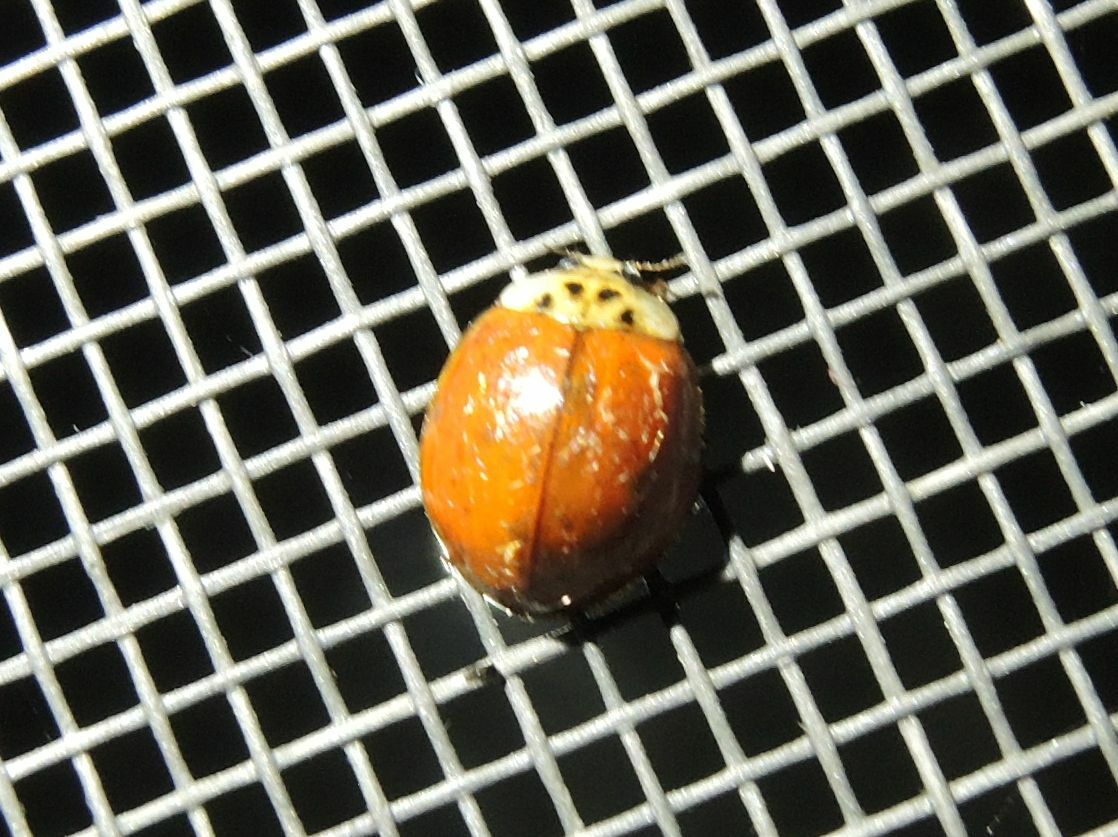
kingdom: Animalia
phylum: Arthropoda
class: Insecta
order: Coleoptera
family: Coccinellidae
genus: Harmonia
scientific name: Harmonia axyridis
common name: Harlequin ladybird
